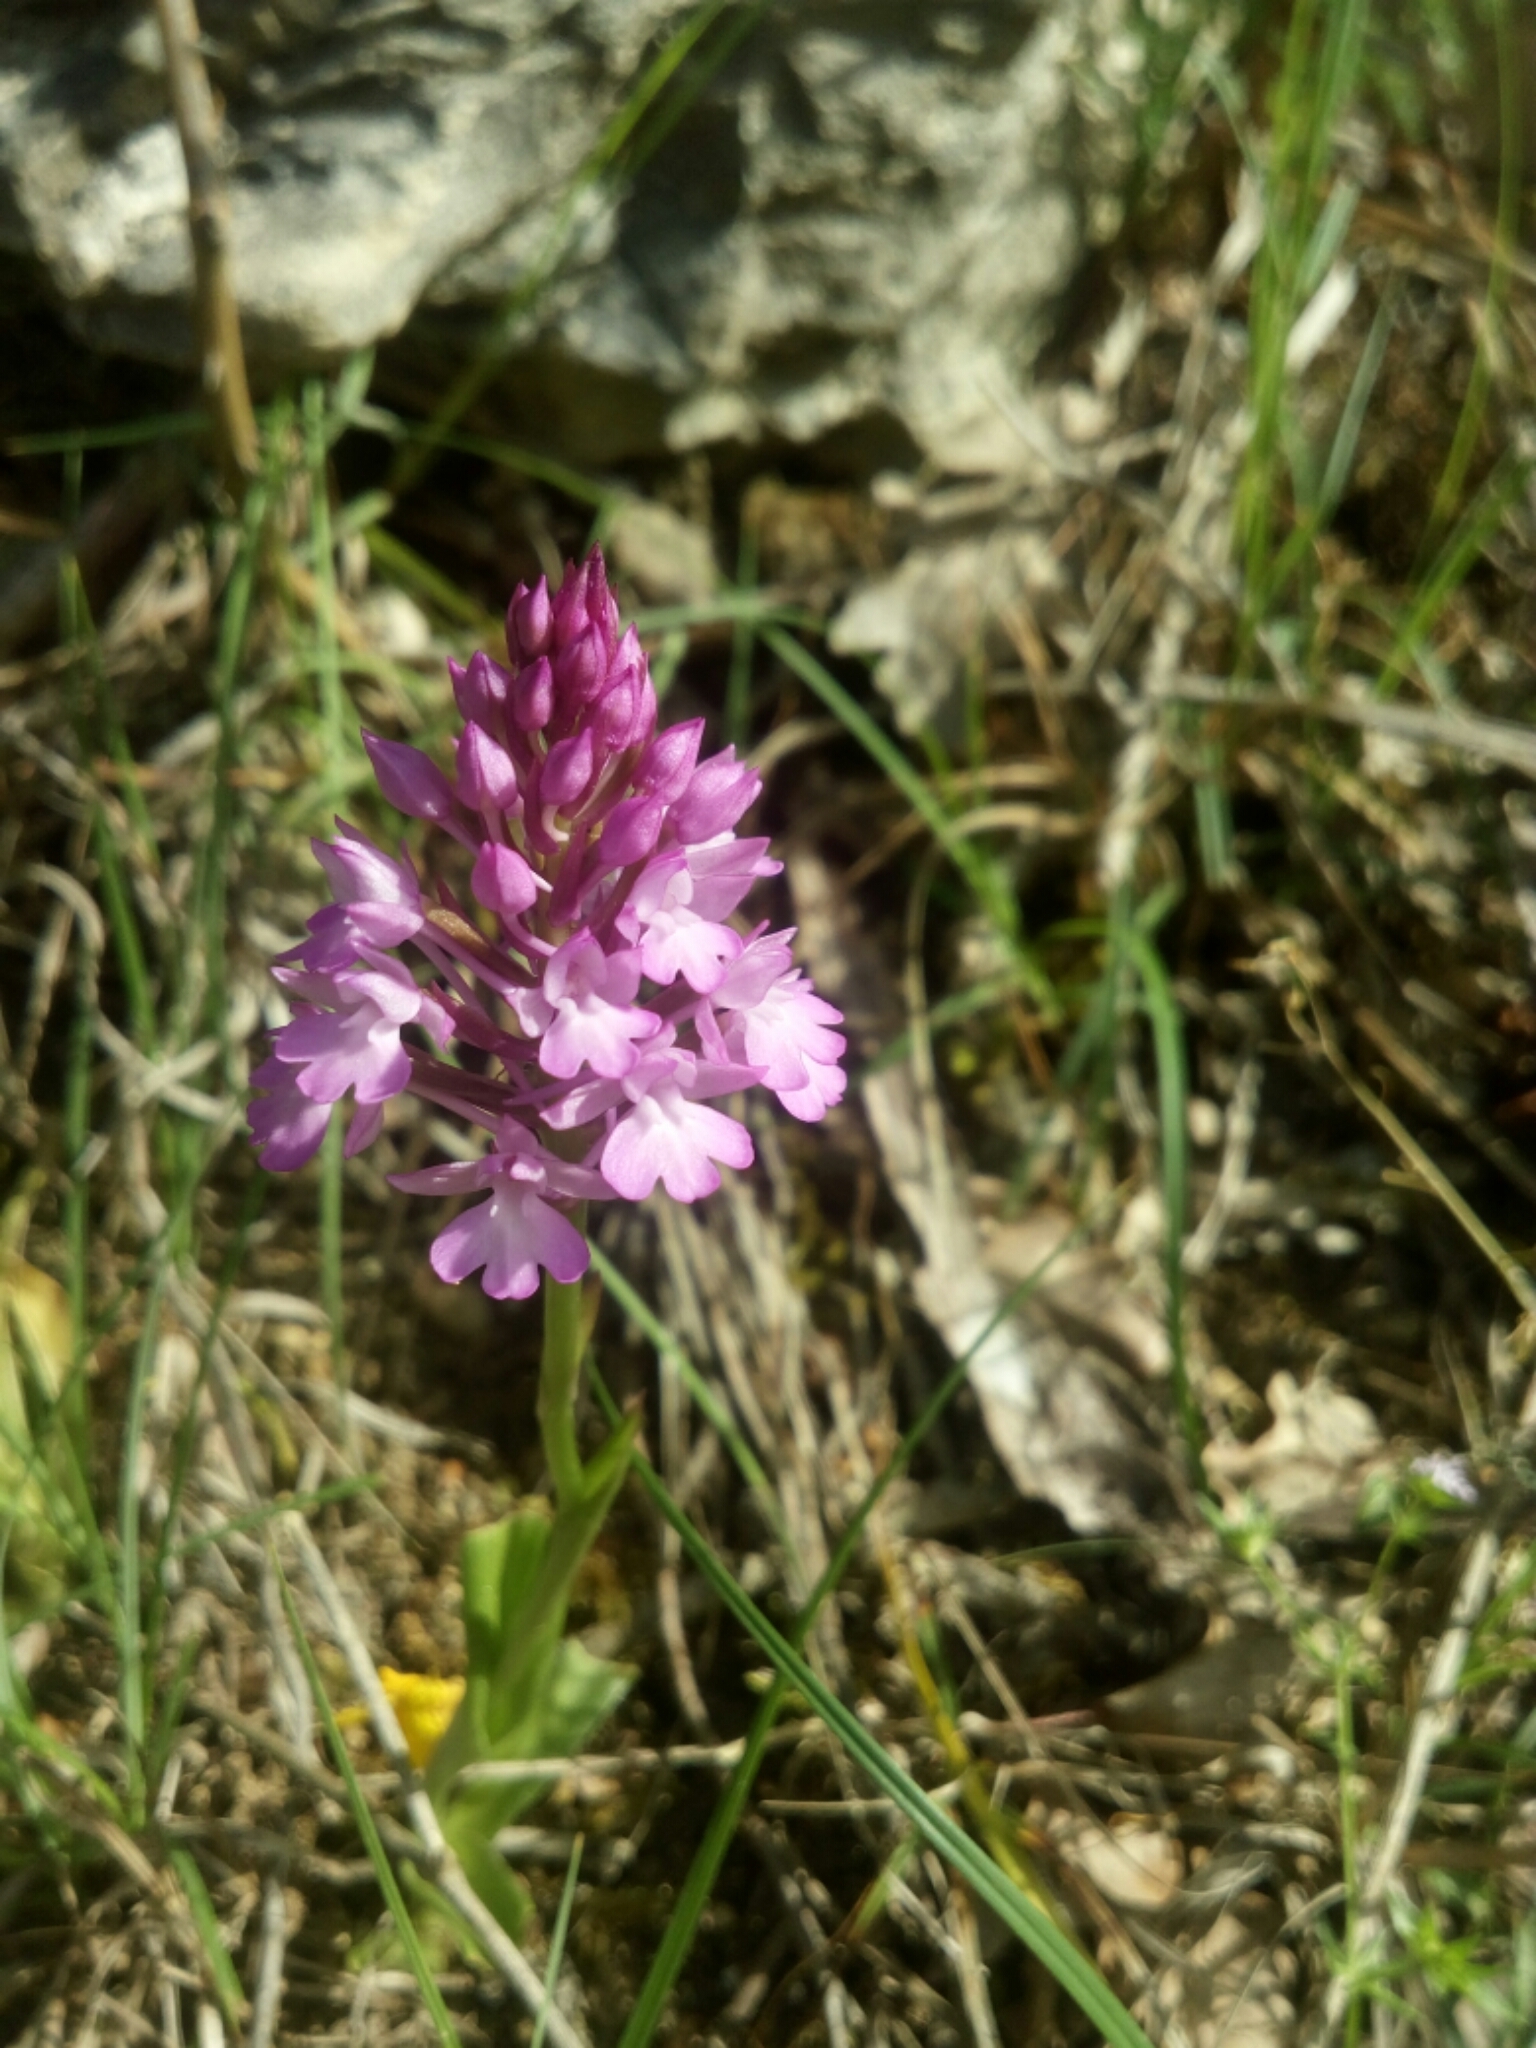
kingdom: Plantae
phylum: Tracheophyta
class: Liliopsida
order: Asparagales
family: Orchidaceae
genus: Anacamptis
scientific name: Anacamptis pyramidalis
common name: Pyramidal orchid
